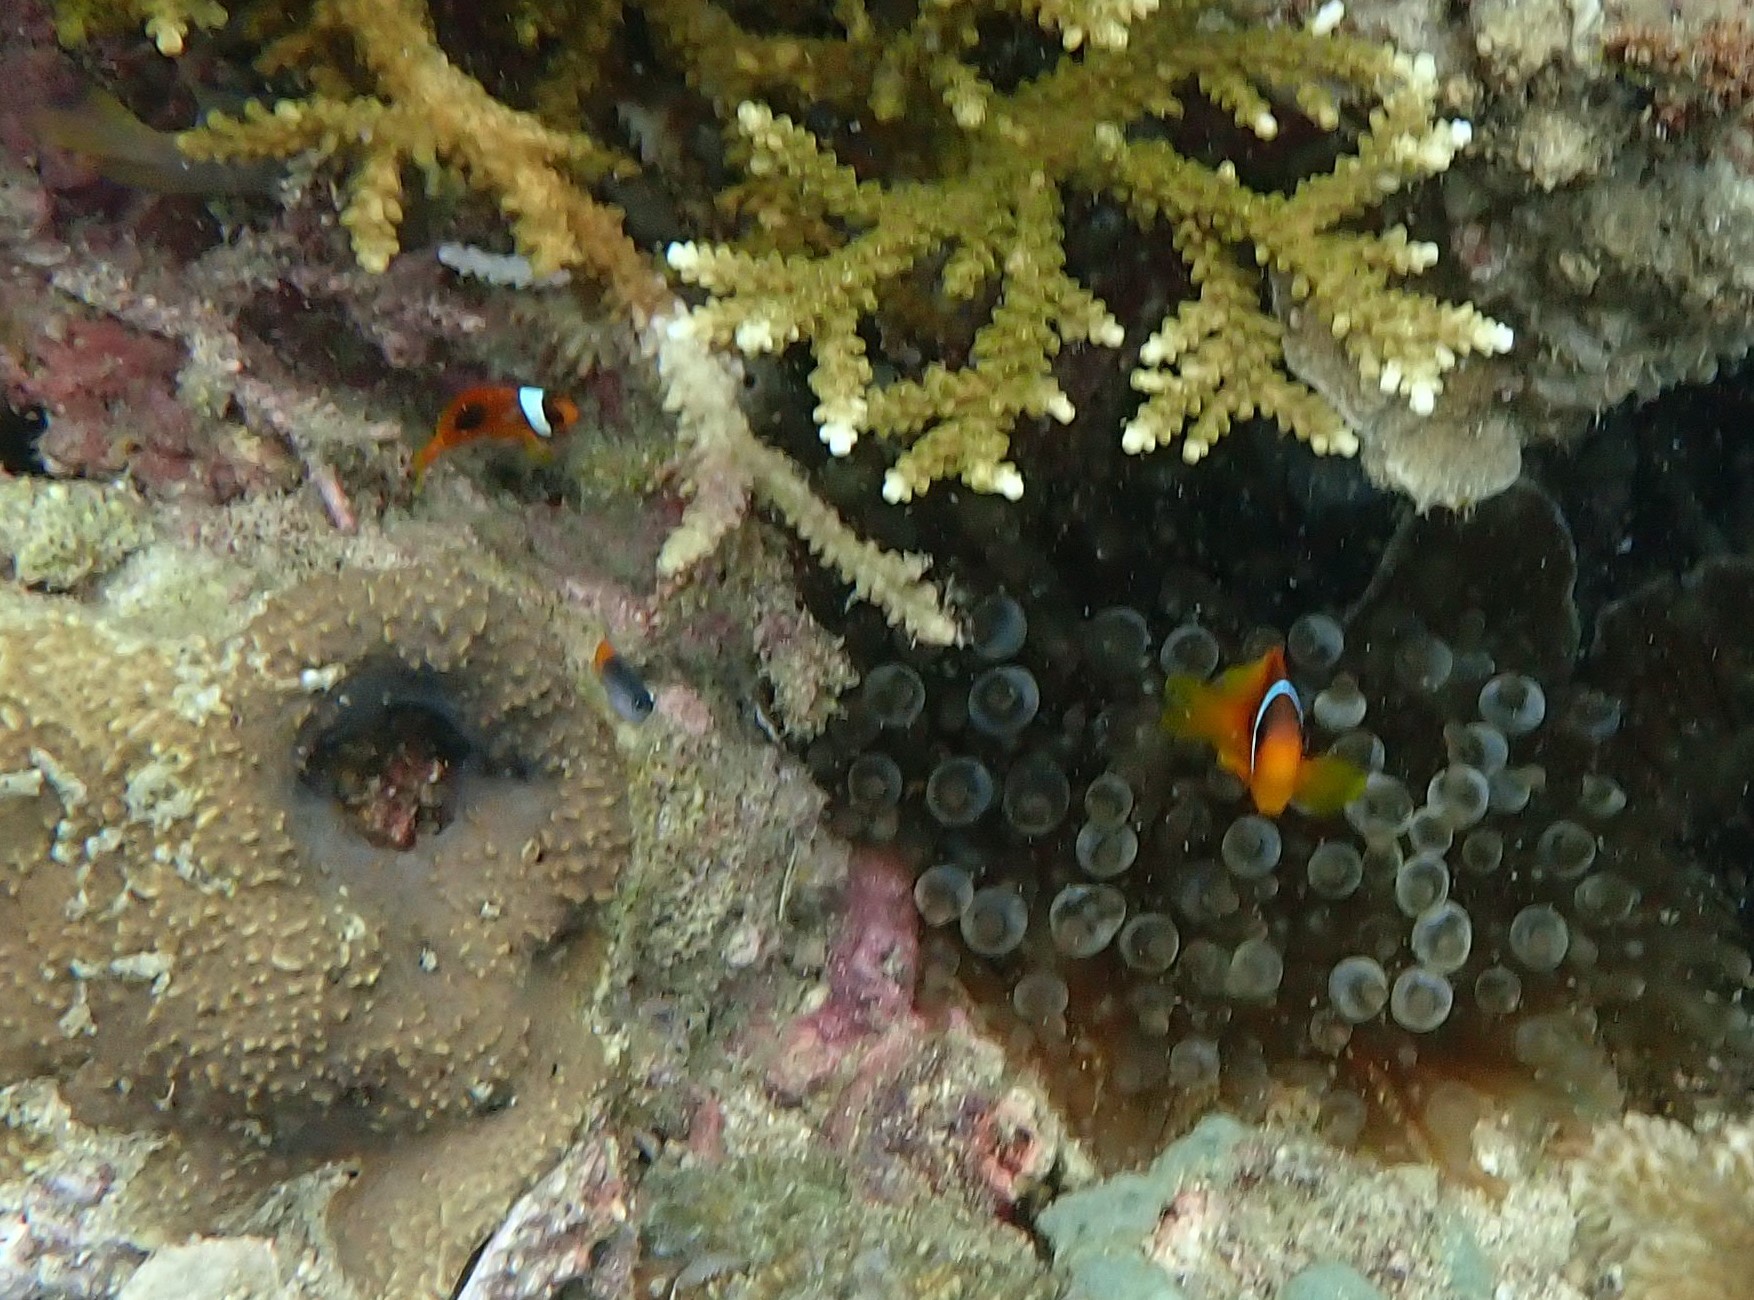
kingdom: Animalia
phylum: Chordata
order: Perciformes
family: Pomacentridae
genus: Amphiprion
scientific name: Amphiprion ephippium
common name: Red saddleback anemonefish
